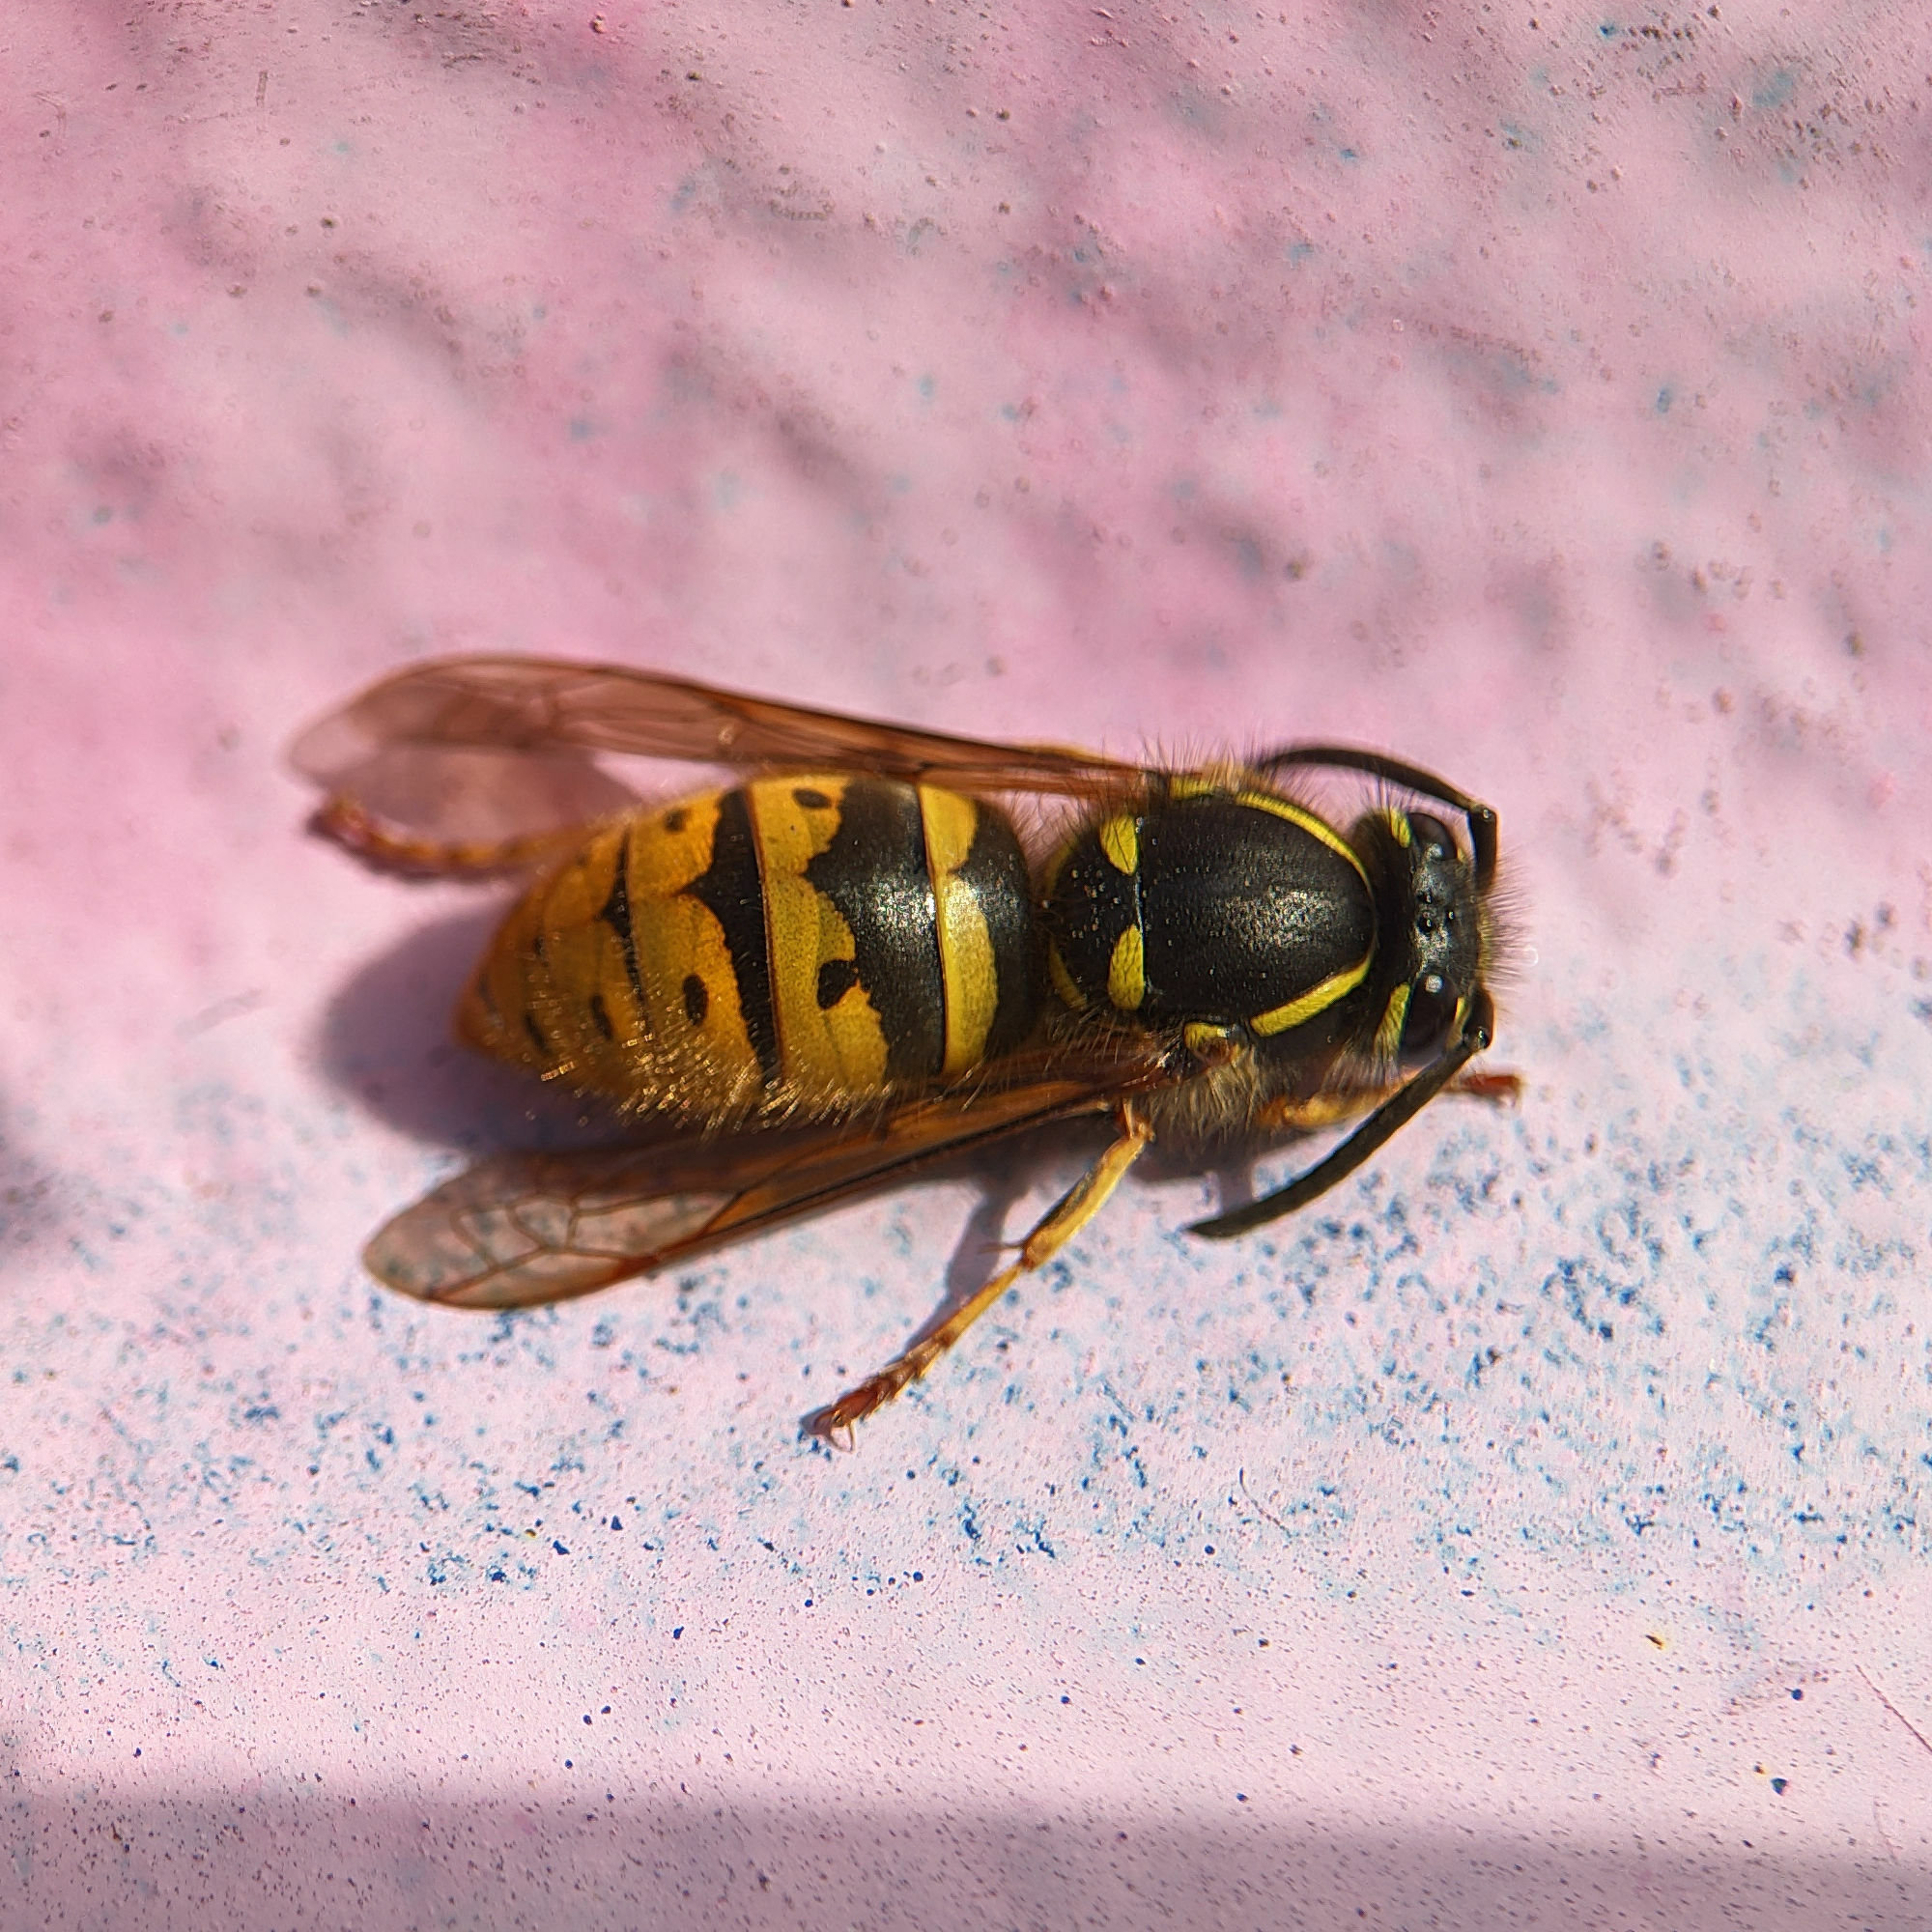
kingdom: Animalia
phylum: Arthropoda
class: Insecta
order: Hymenoptera
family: Vespidae
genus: Vespula
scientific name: Vespula vulgaris
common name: Common wasp
